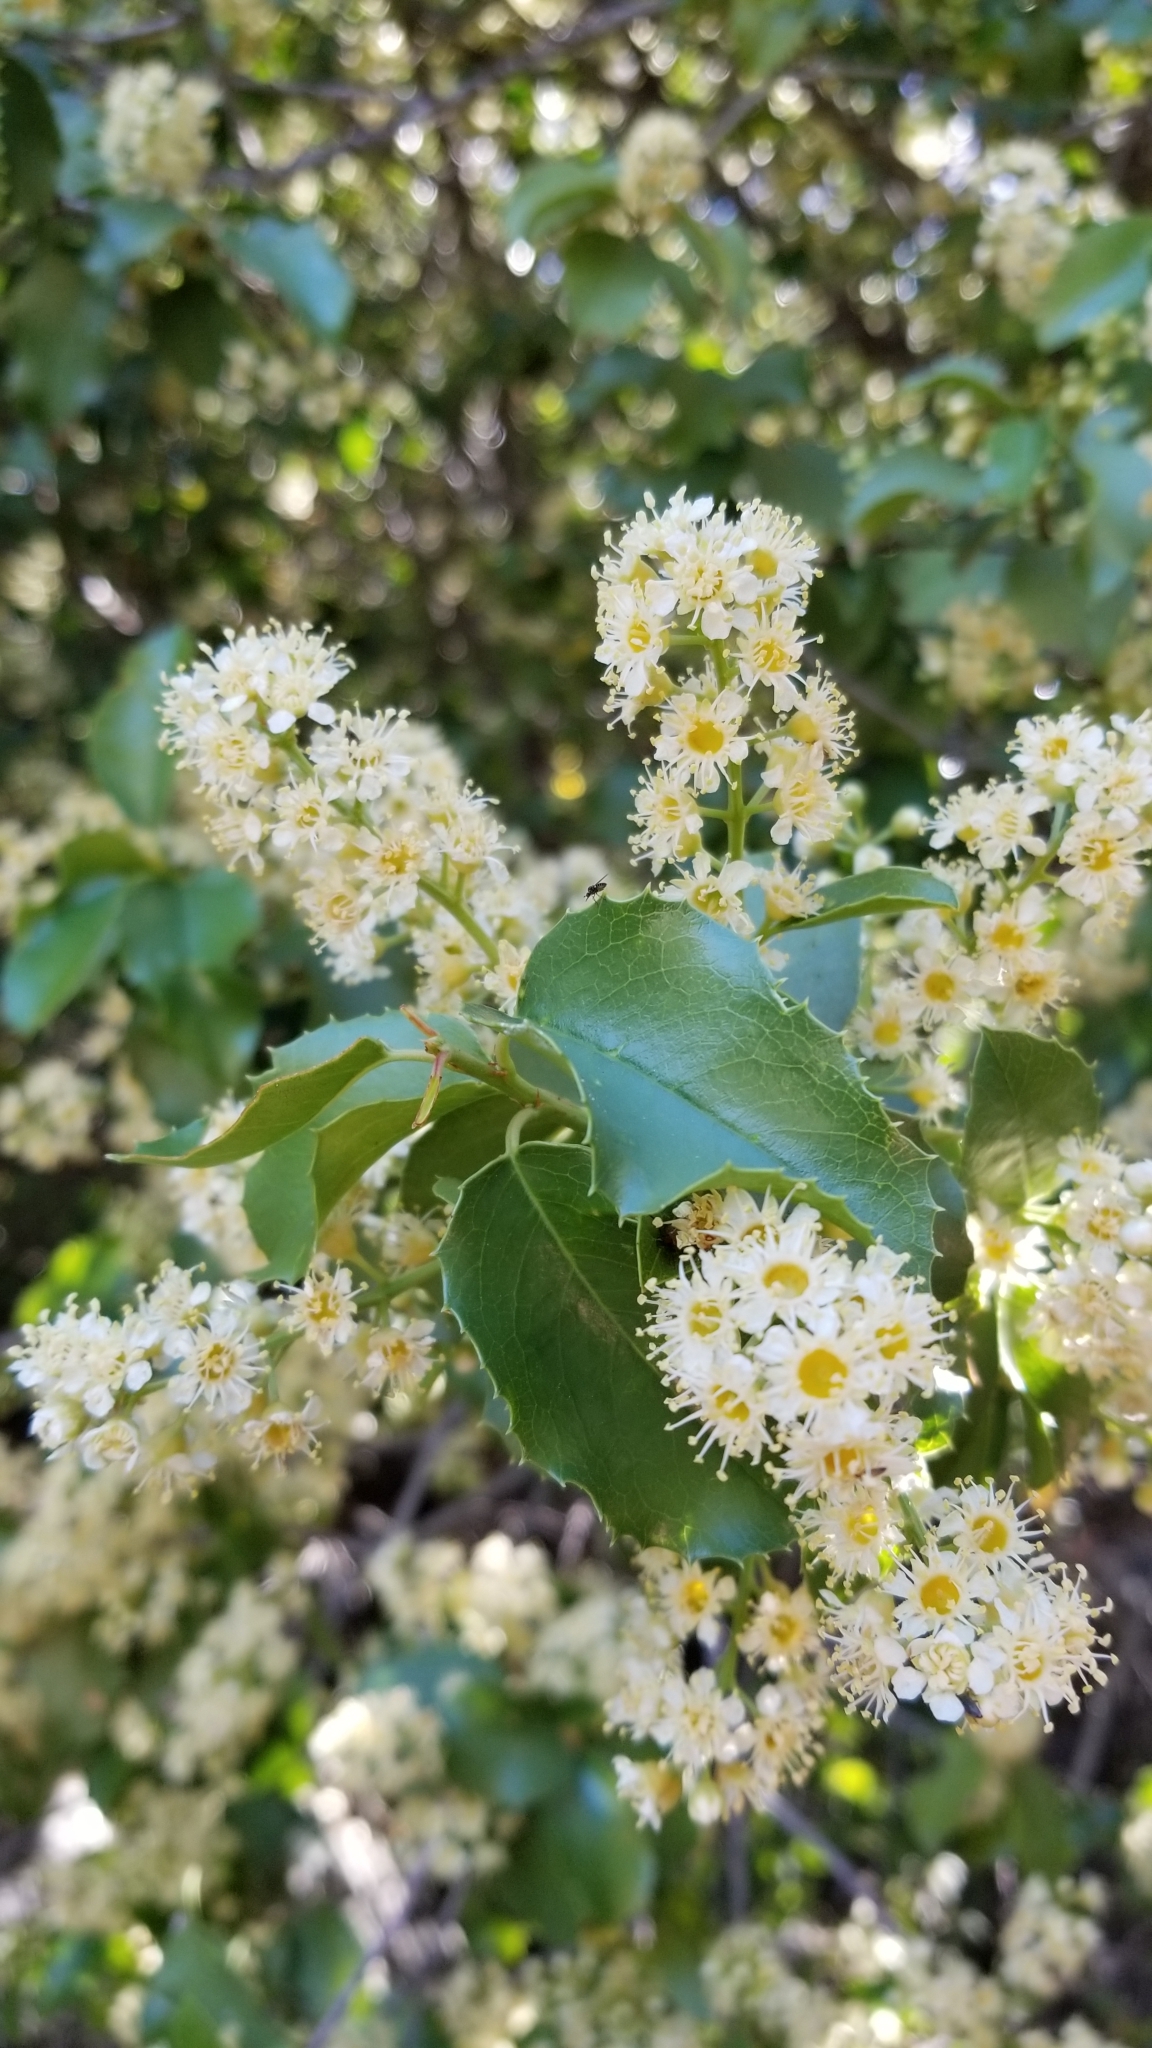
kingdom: Plantae
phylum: Tracheophyta
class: Magnoliopsida
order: Rosales
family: Rosaceae
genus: Prunus
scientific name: Prunus ilicifolia
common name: Hollyleaf cherry
